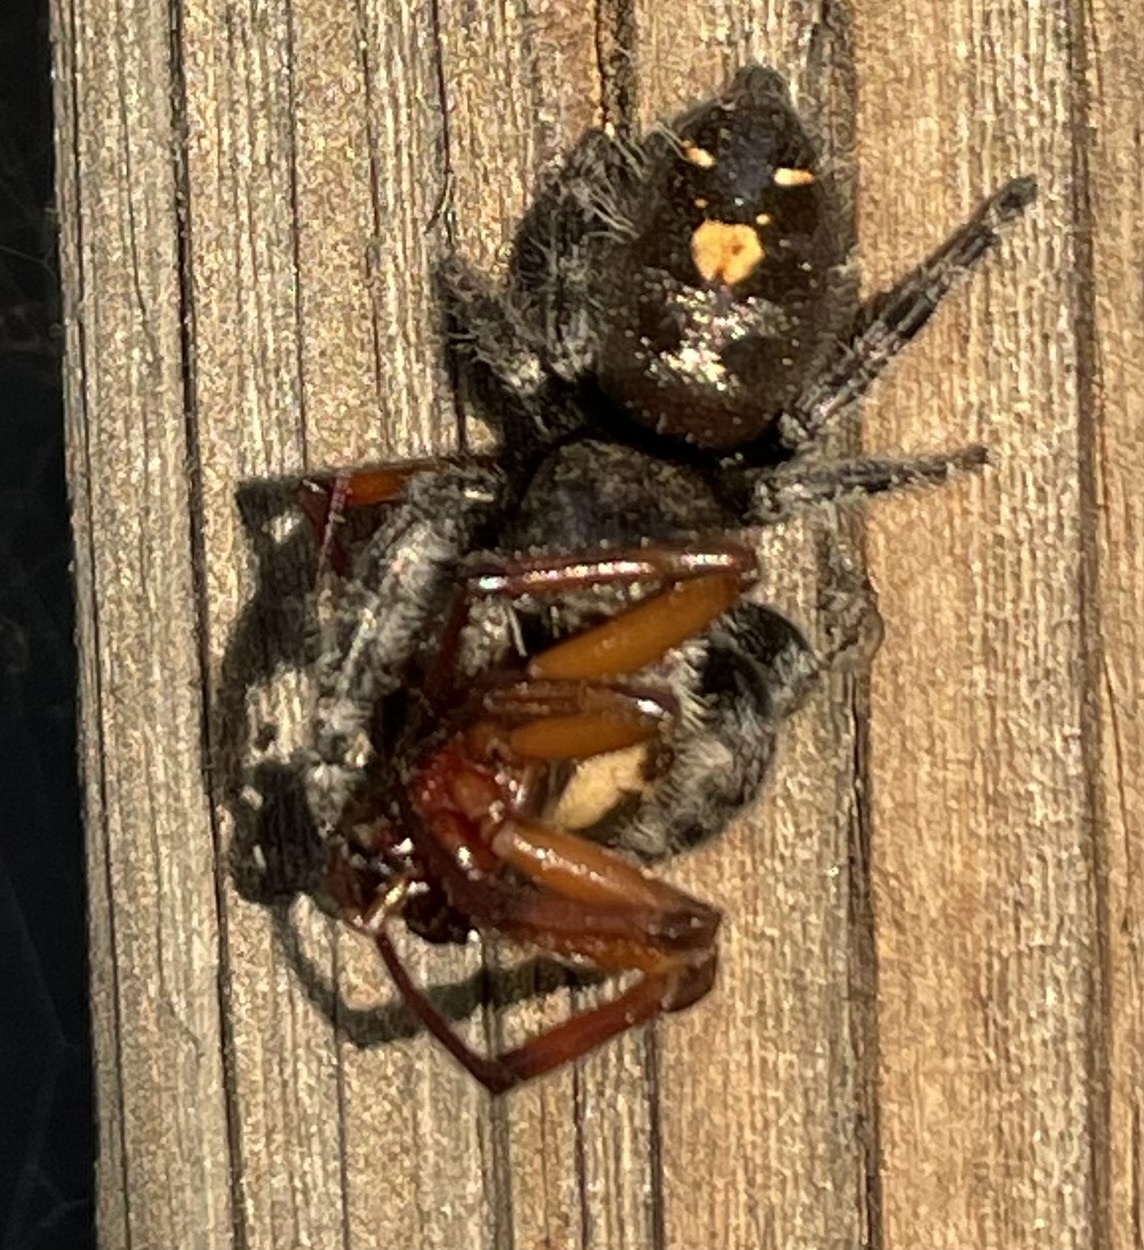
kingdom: Animalia
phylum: Arthropoda
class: Arachnida
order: Araneae
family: Salticidae
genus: Phidippus
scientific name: Phidippus audax
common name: Bold jumper
